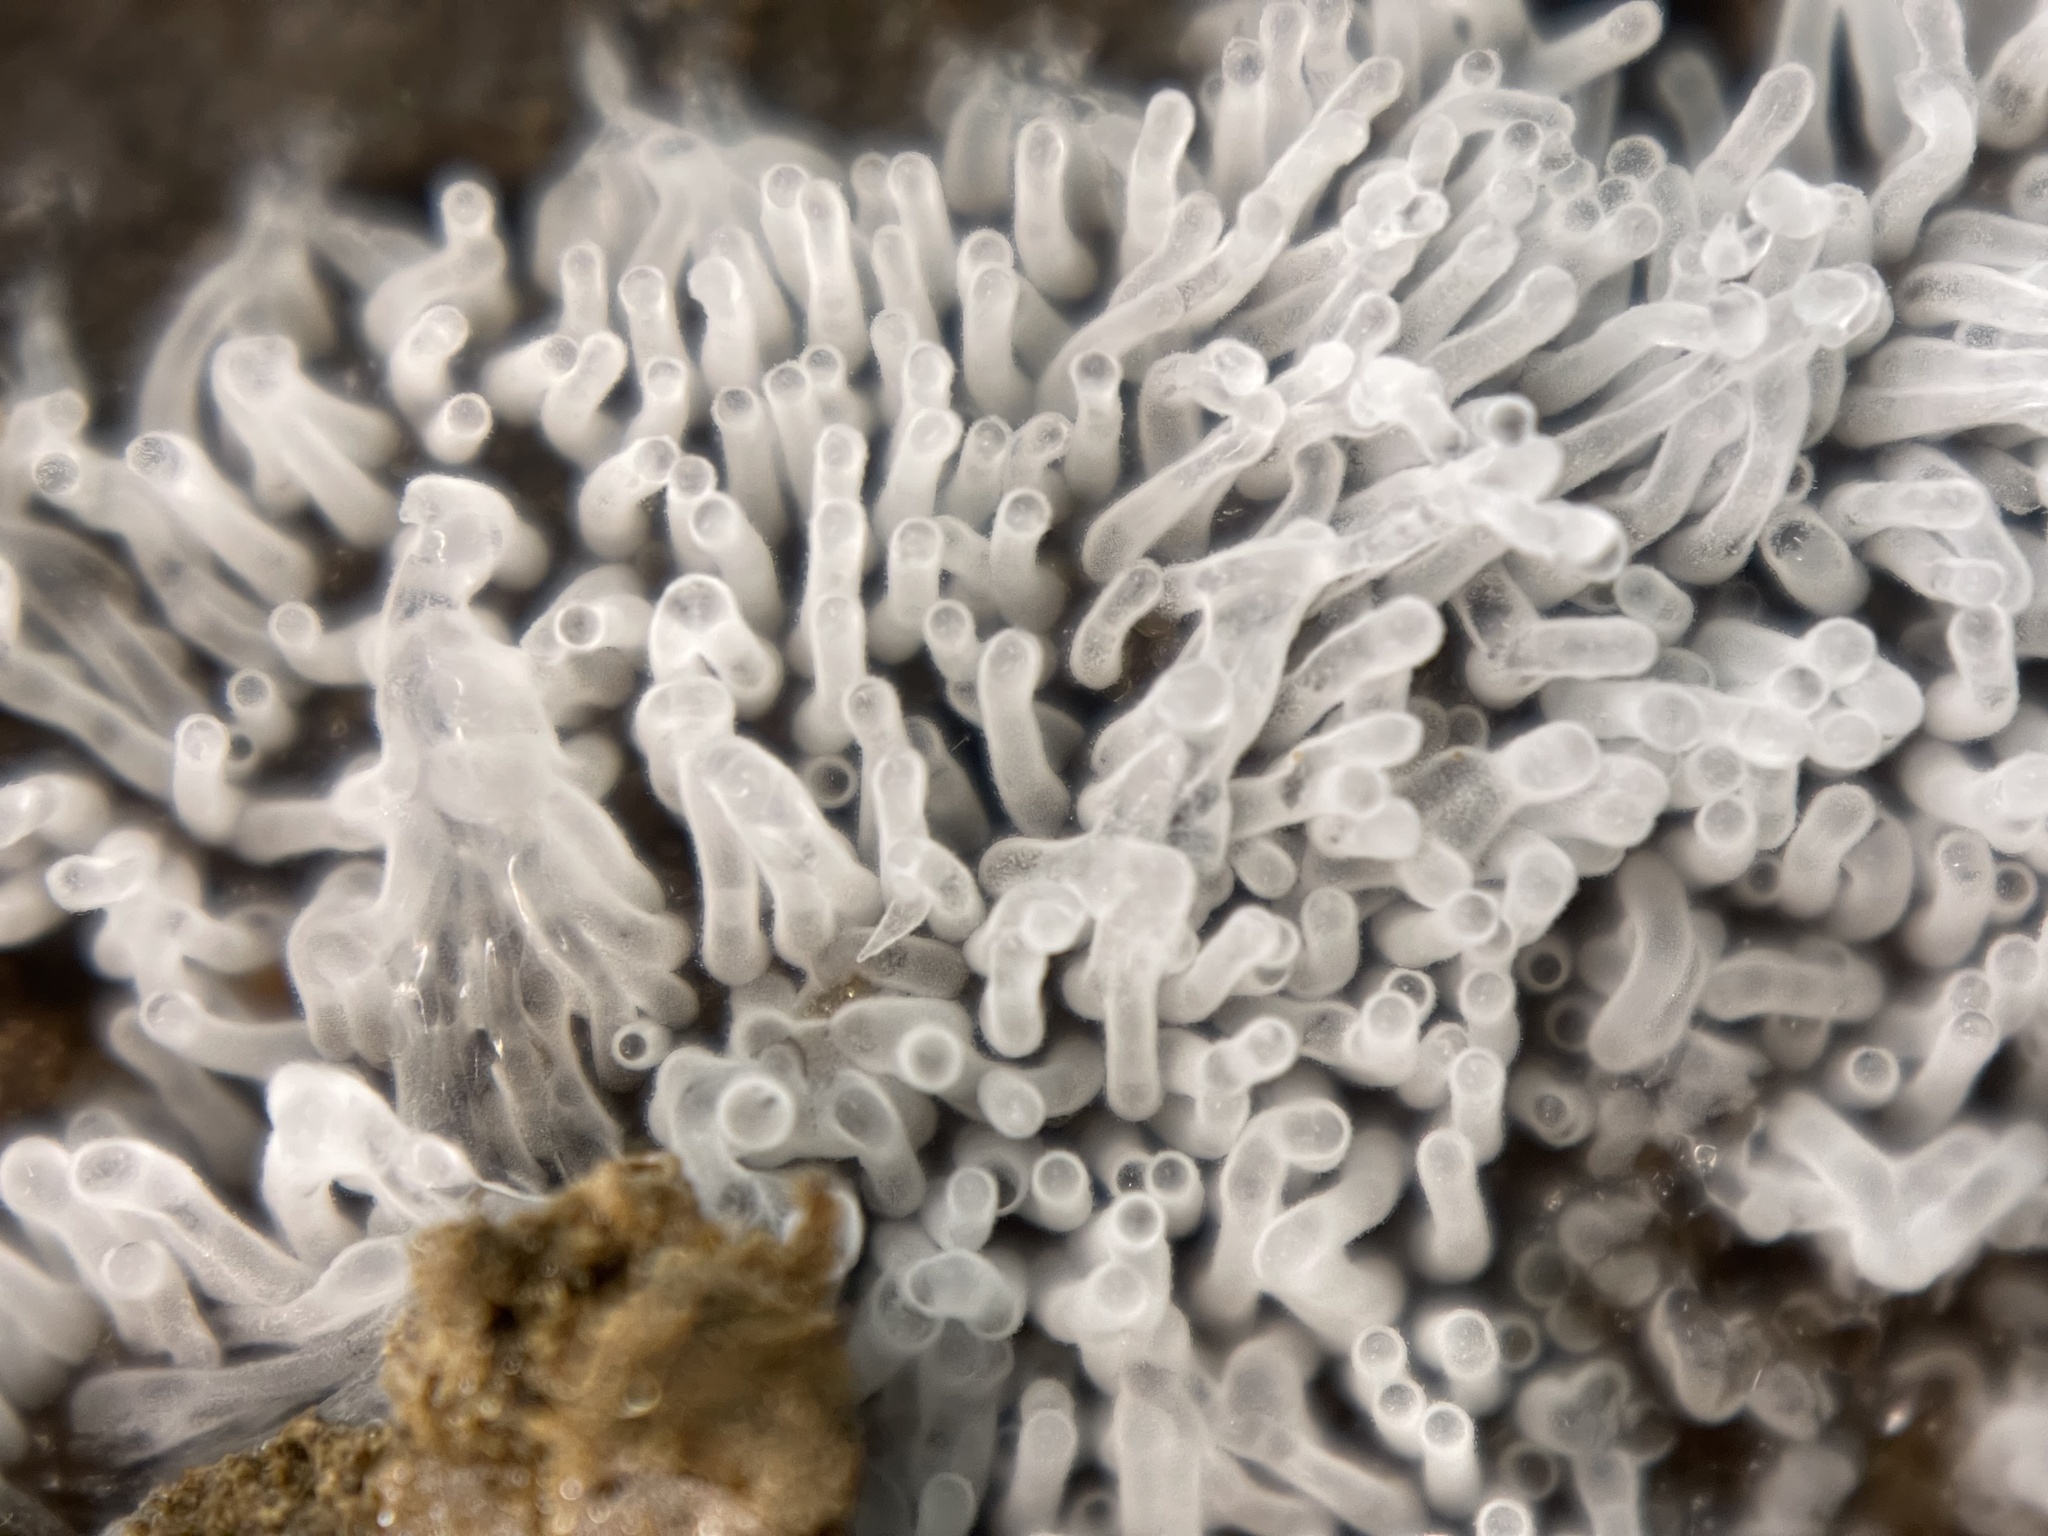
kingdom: Protozoa
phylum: Mycetozoa
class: Protosteliomycetes
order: Ceratiomyxales
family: Ceratiomyxaceae
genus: Ceratiomyxa
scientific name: Ceratiomyxa fruticulosa
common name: Honeycomb coral slime mold
